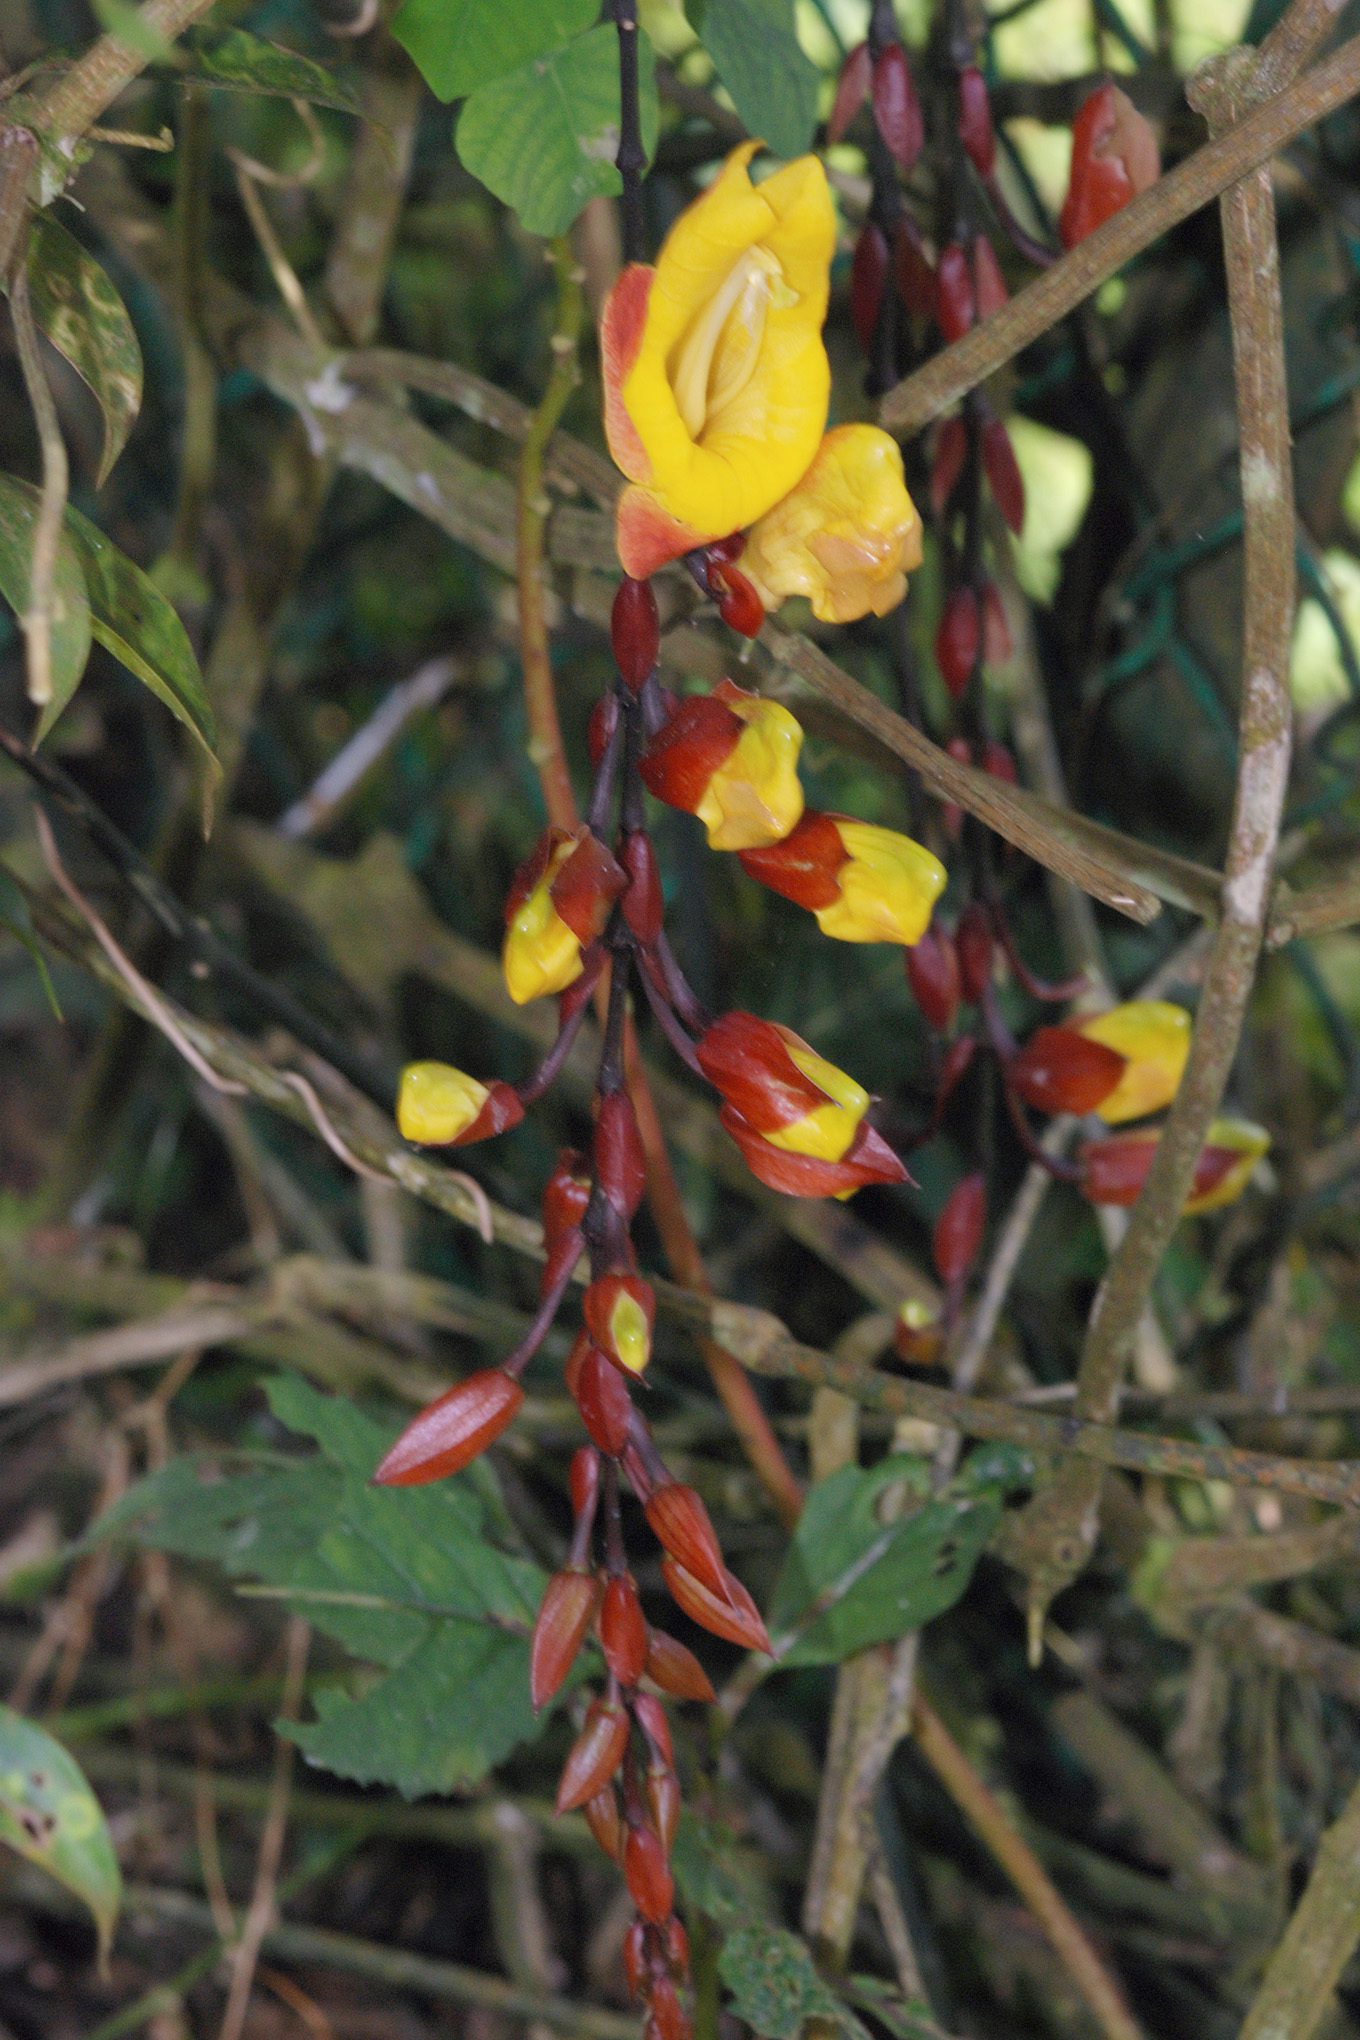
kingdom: Plantae
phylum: Tracheophyta
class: Magnoliopsida
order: Lamiales
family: Acanthaceae
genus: Thunbergia
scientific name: Thunbergia mysorensis
